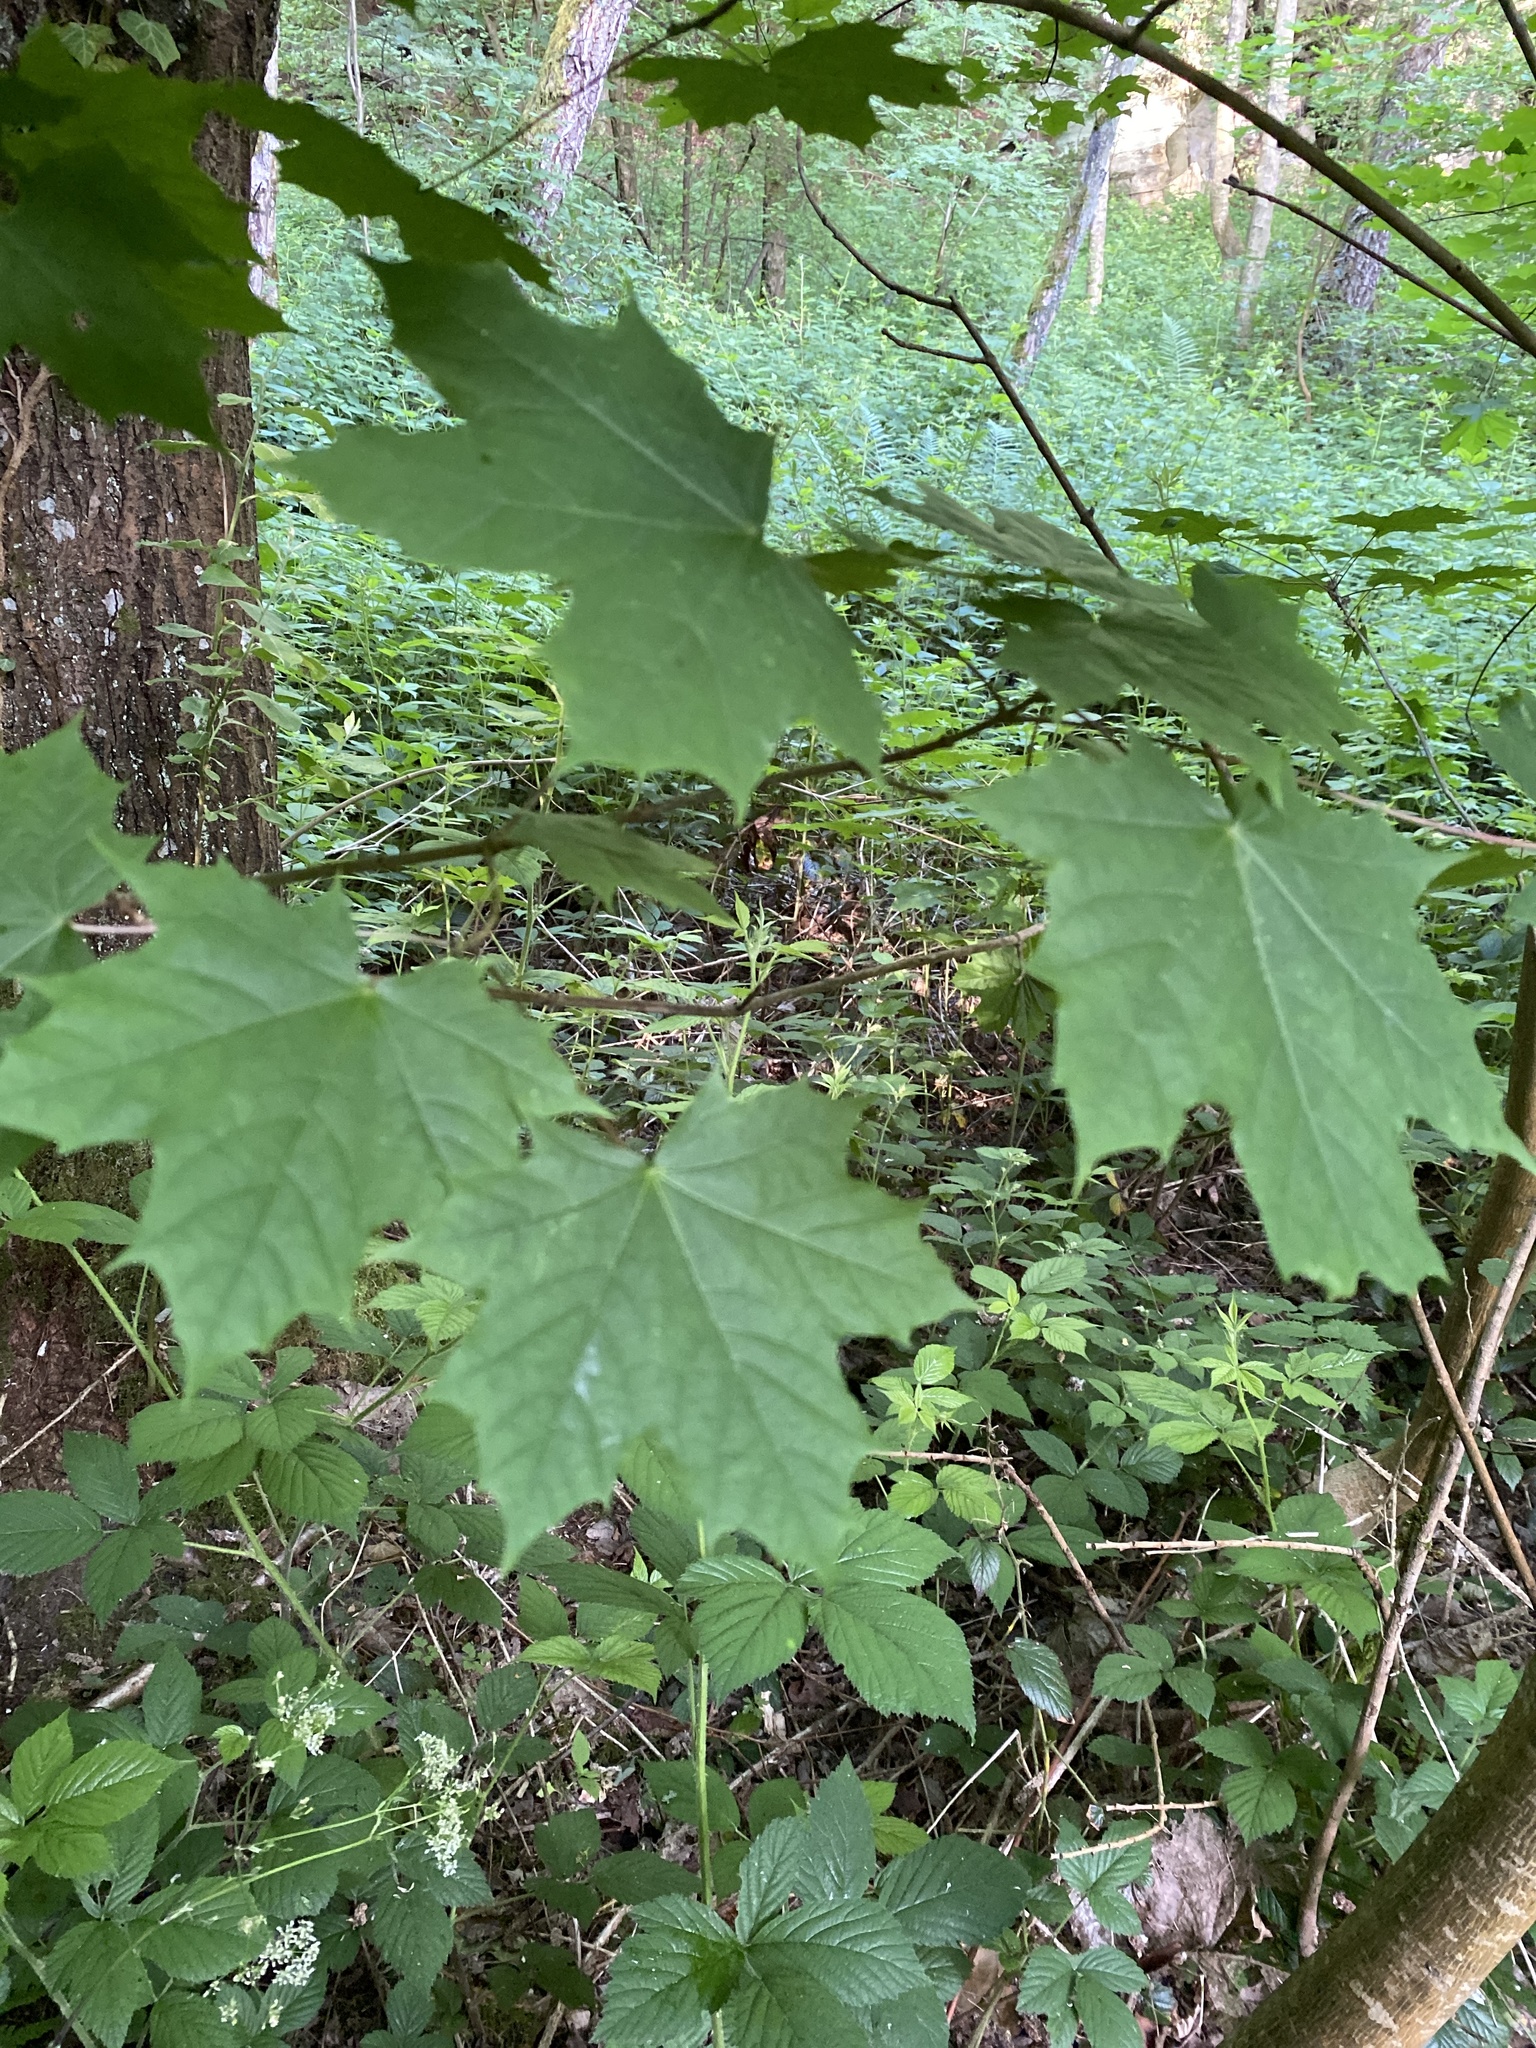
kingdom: Plantae
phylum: Tracheophyta
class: Magnoliopsida
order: Sapindales
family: Sapindaceae
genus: Acer
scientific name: Acer platanoides
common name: Norway maple
